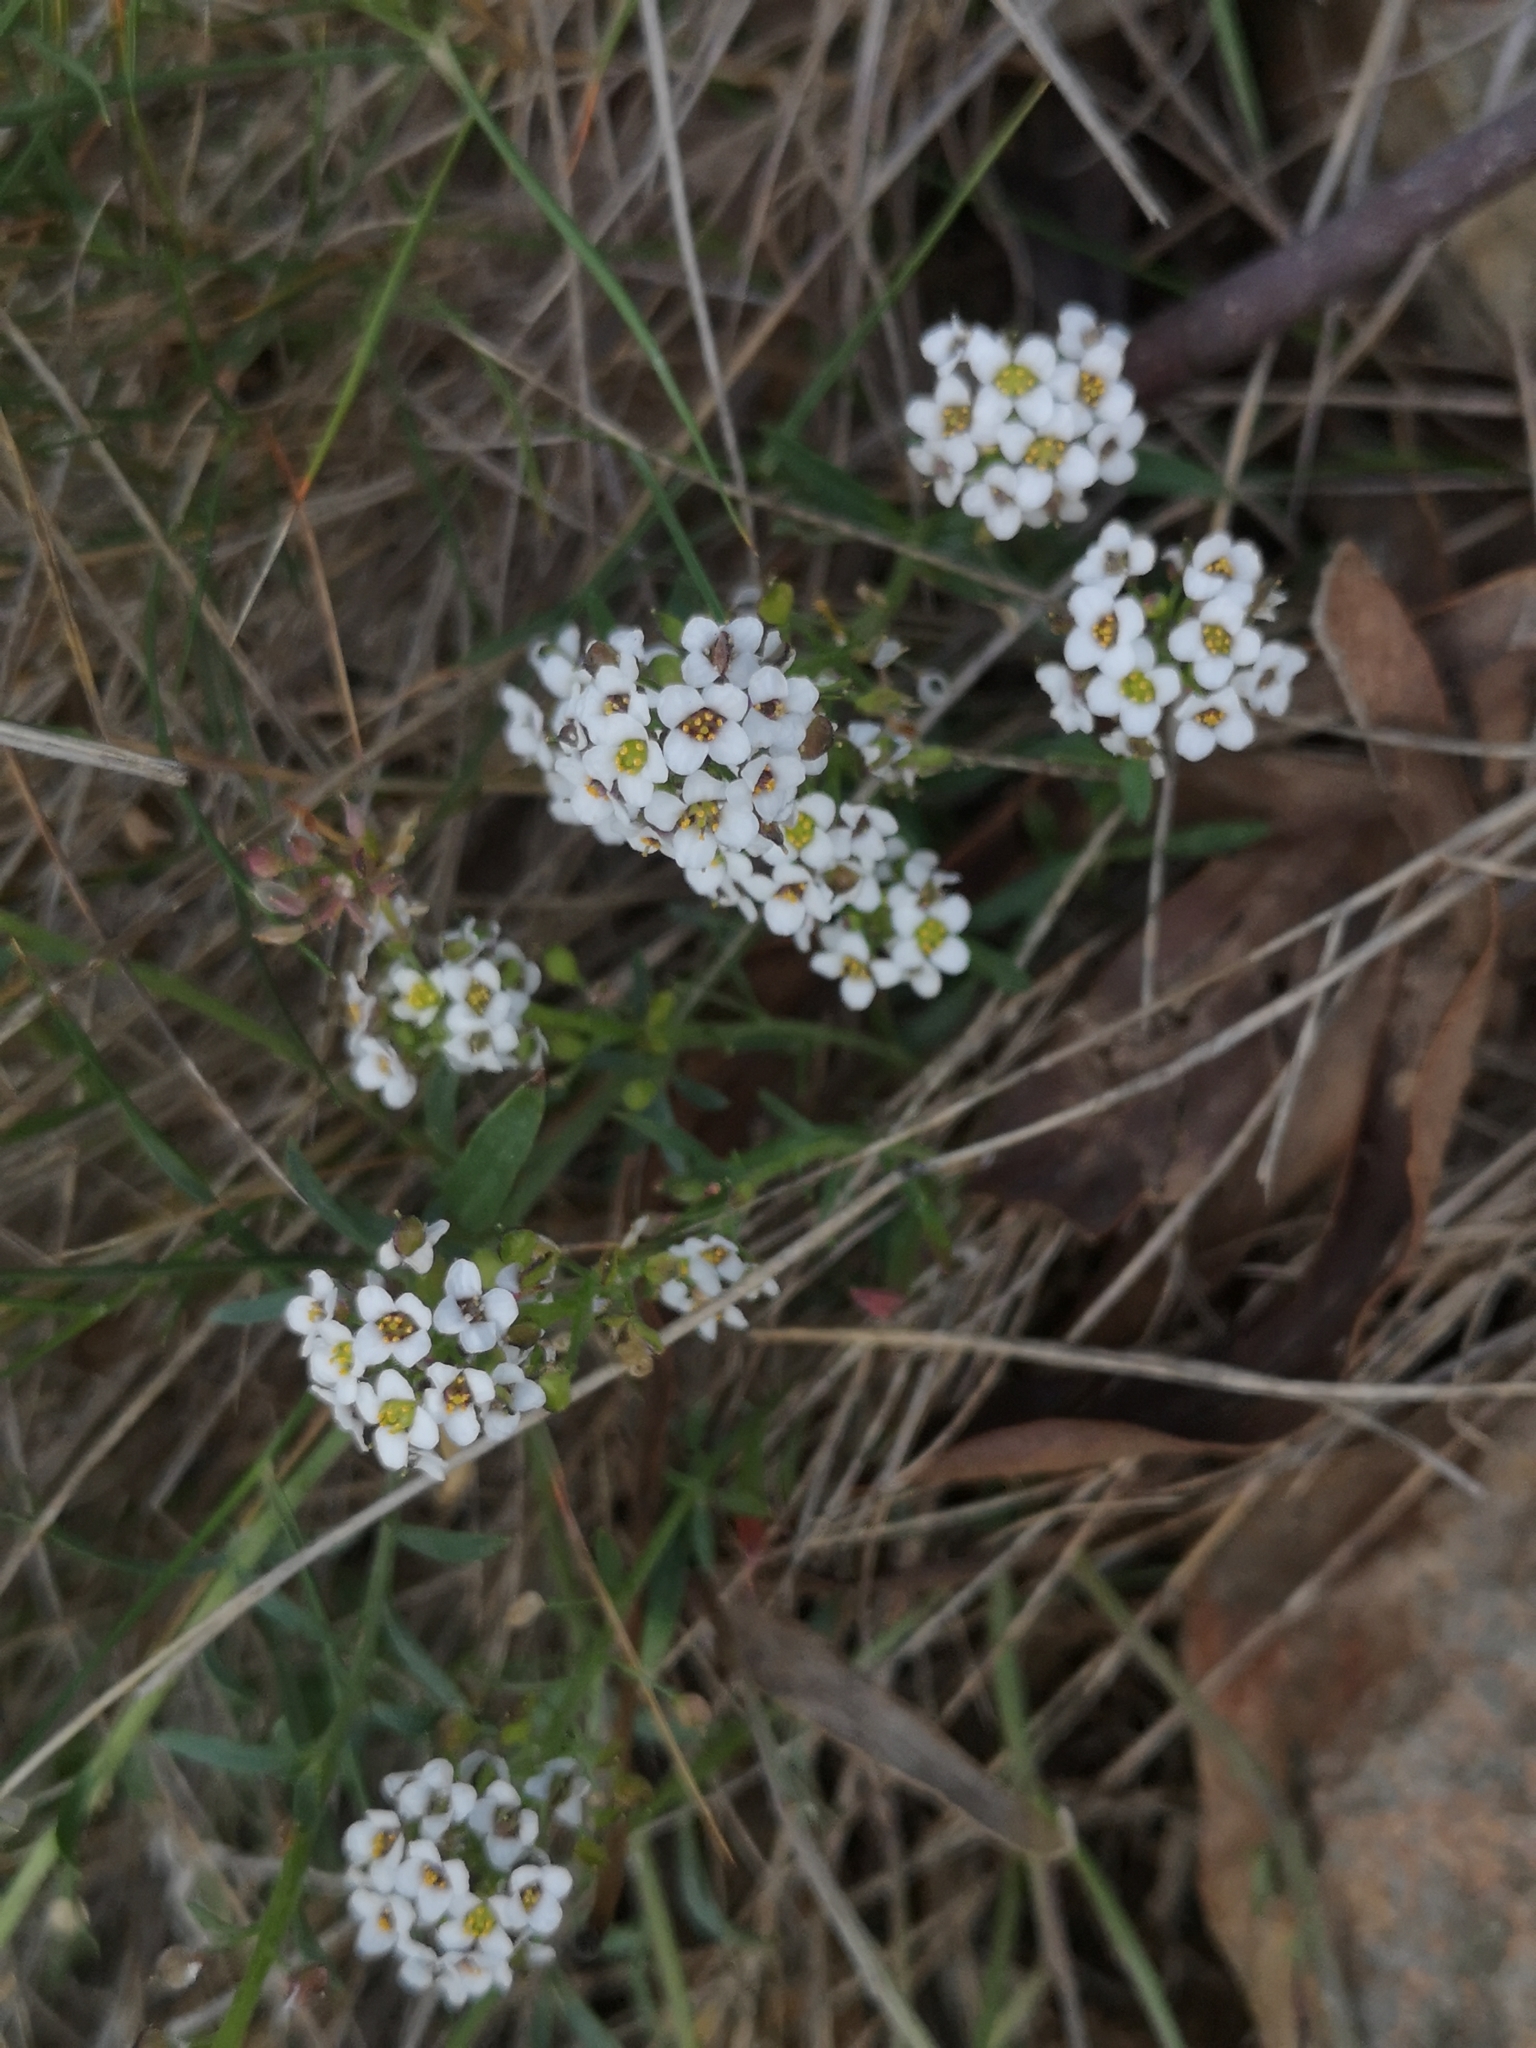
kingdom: Plantae
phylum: Tracheophyta
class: Magnoliopsida
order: Brassicales
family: Brassicaceae
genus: Lobularia
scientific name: Lobularia maritima
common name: Sweet alison
